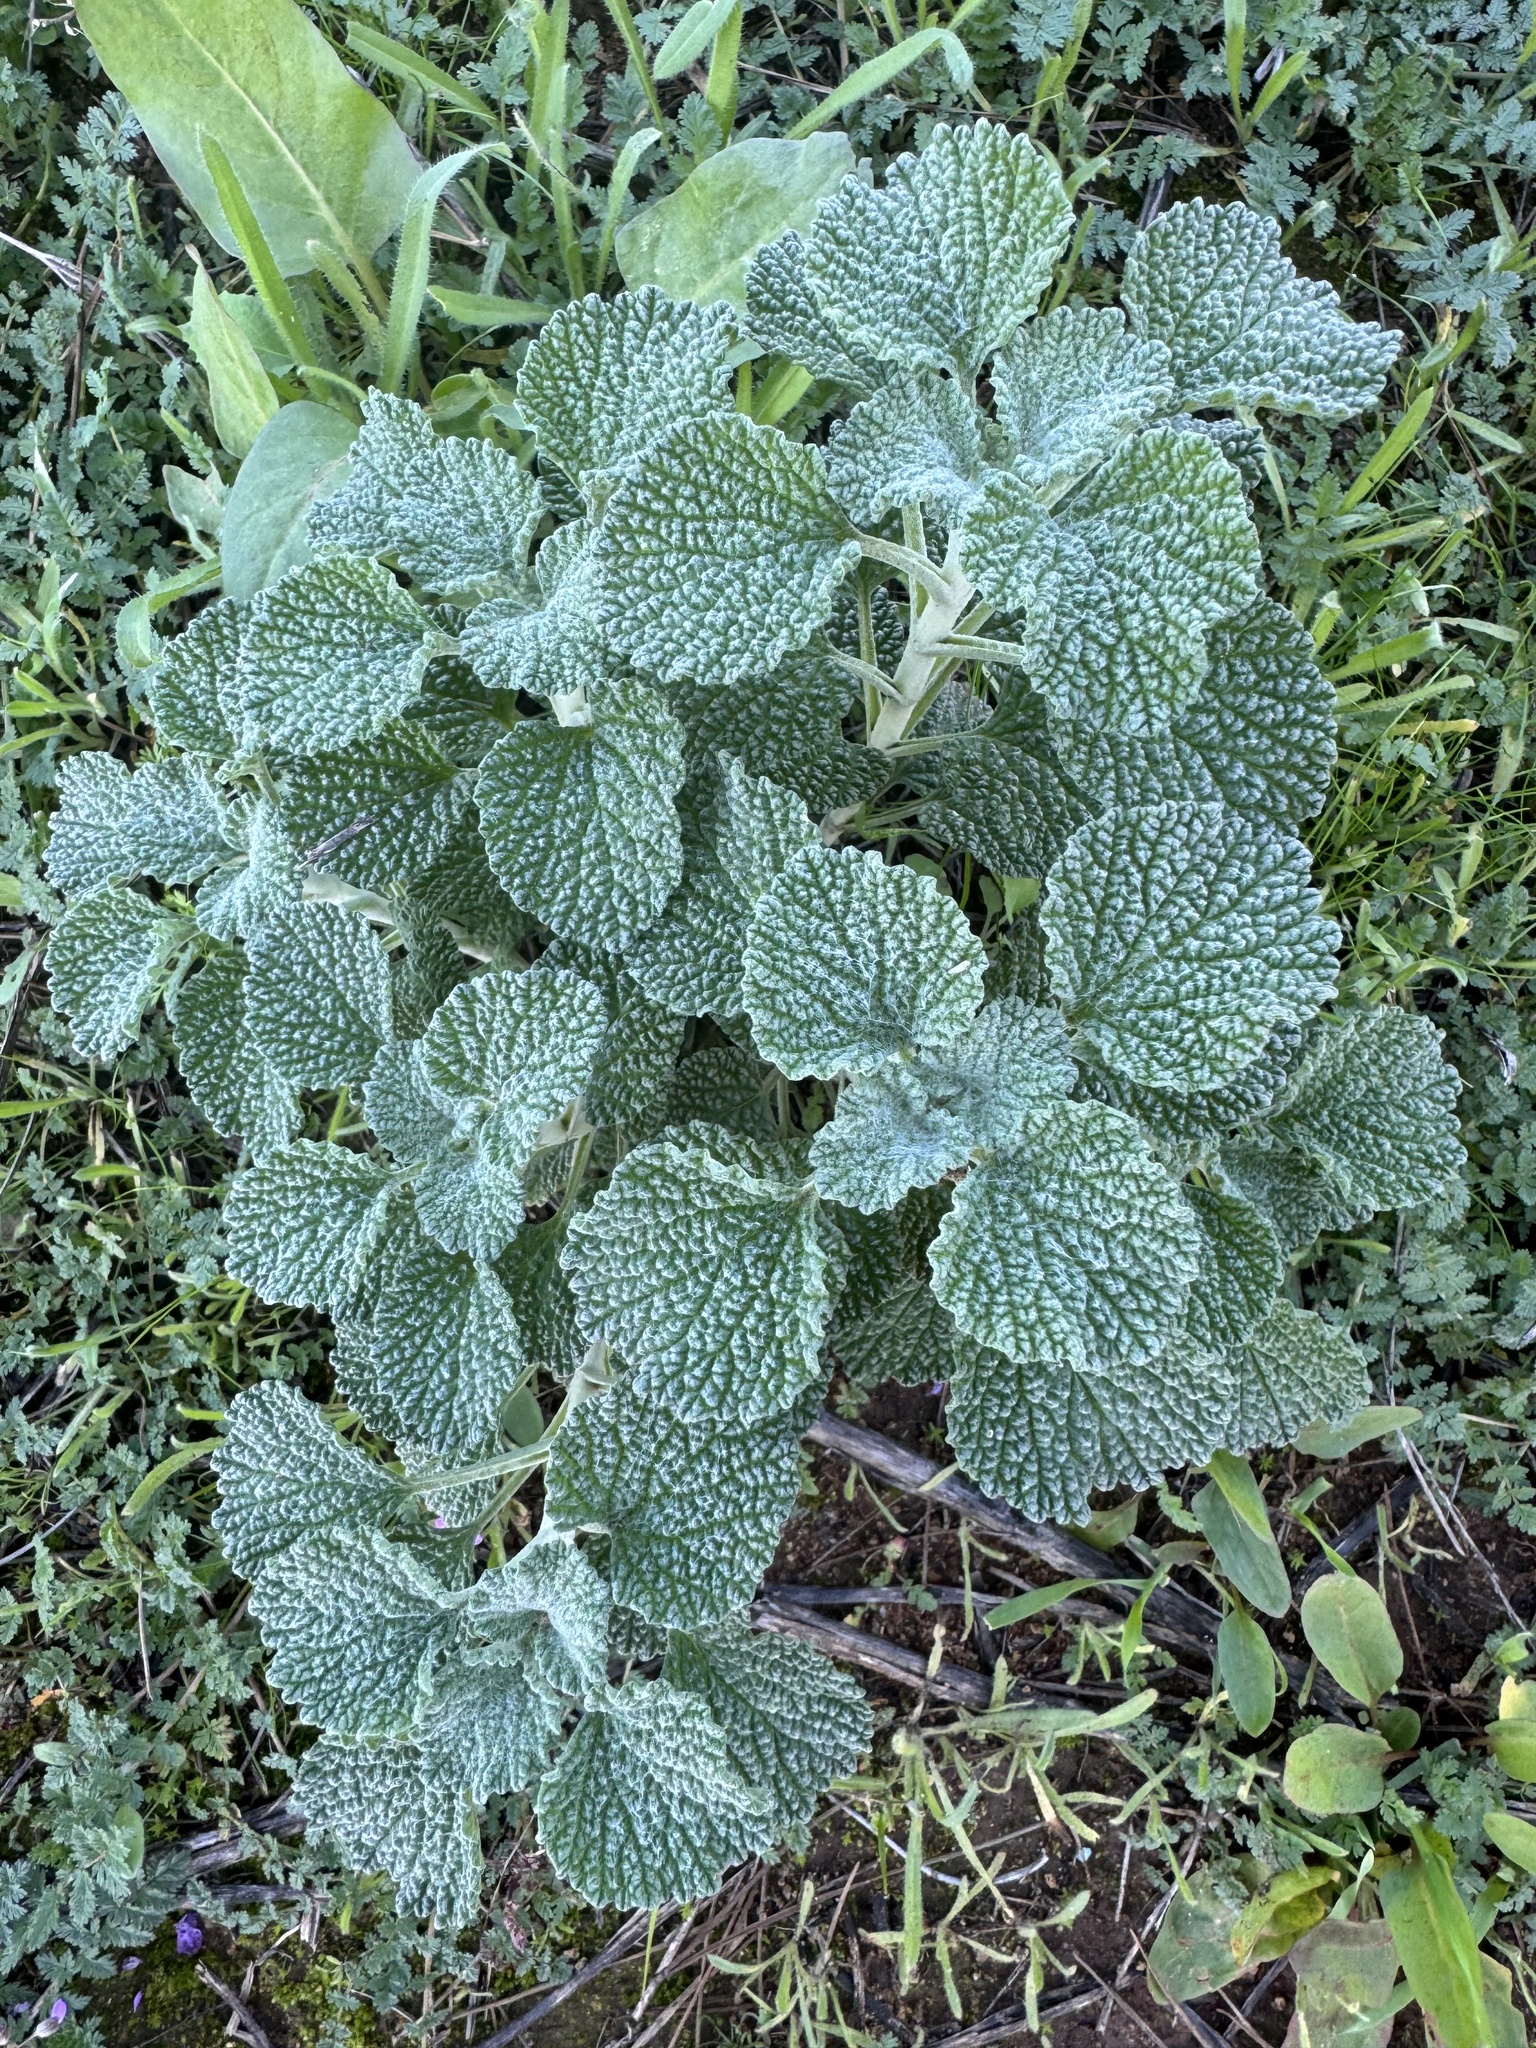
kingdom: Plantae
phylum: Tracheophyta
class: Magnoliopsida
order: Lamiales
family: Lamiaceae
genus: Marrubium
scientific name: Marrubium vulgare
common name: Horehound
